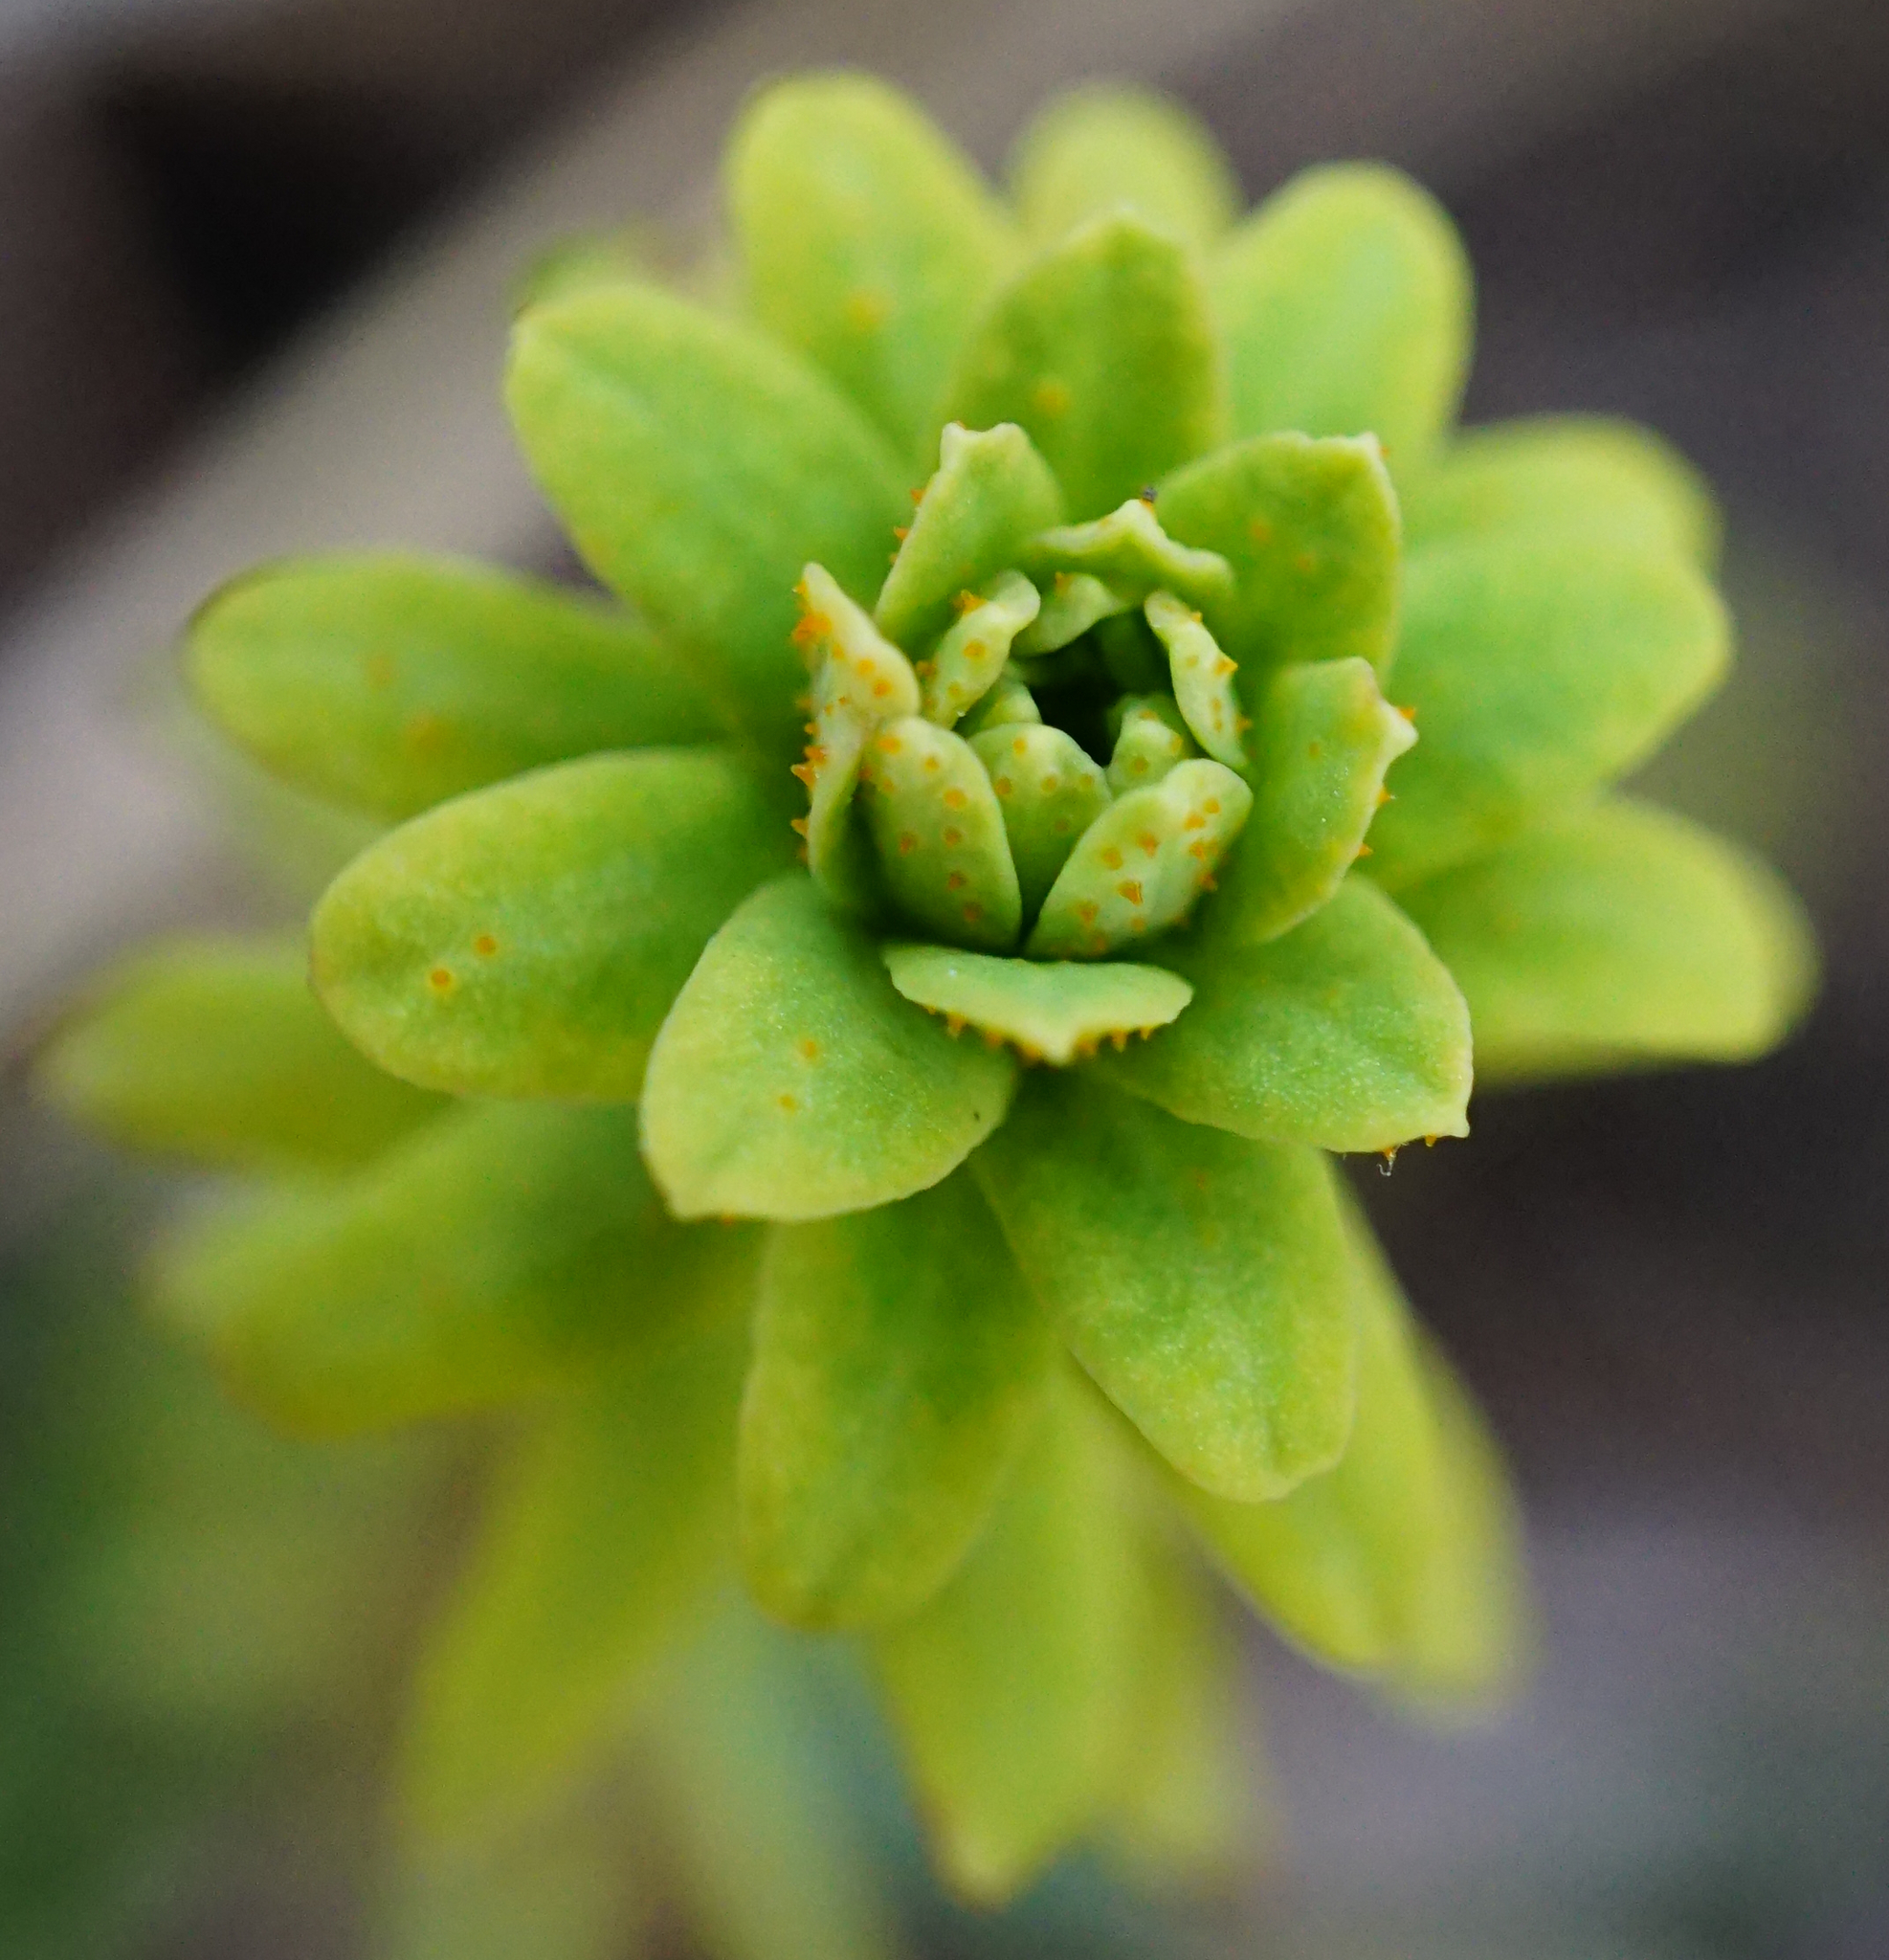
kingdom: Plantae
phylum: Tracheophyta
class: Magnoliopsida
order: Malpighiales
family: Euphorbiaceae
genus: Euphorbia
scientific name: Euphorbia cyparissias
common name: Cypress spurge
